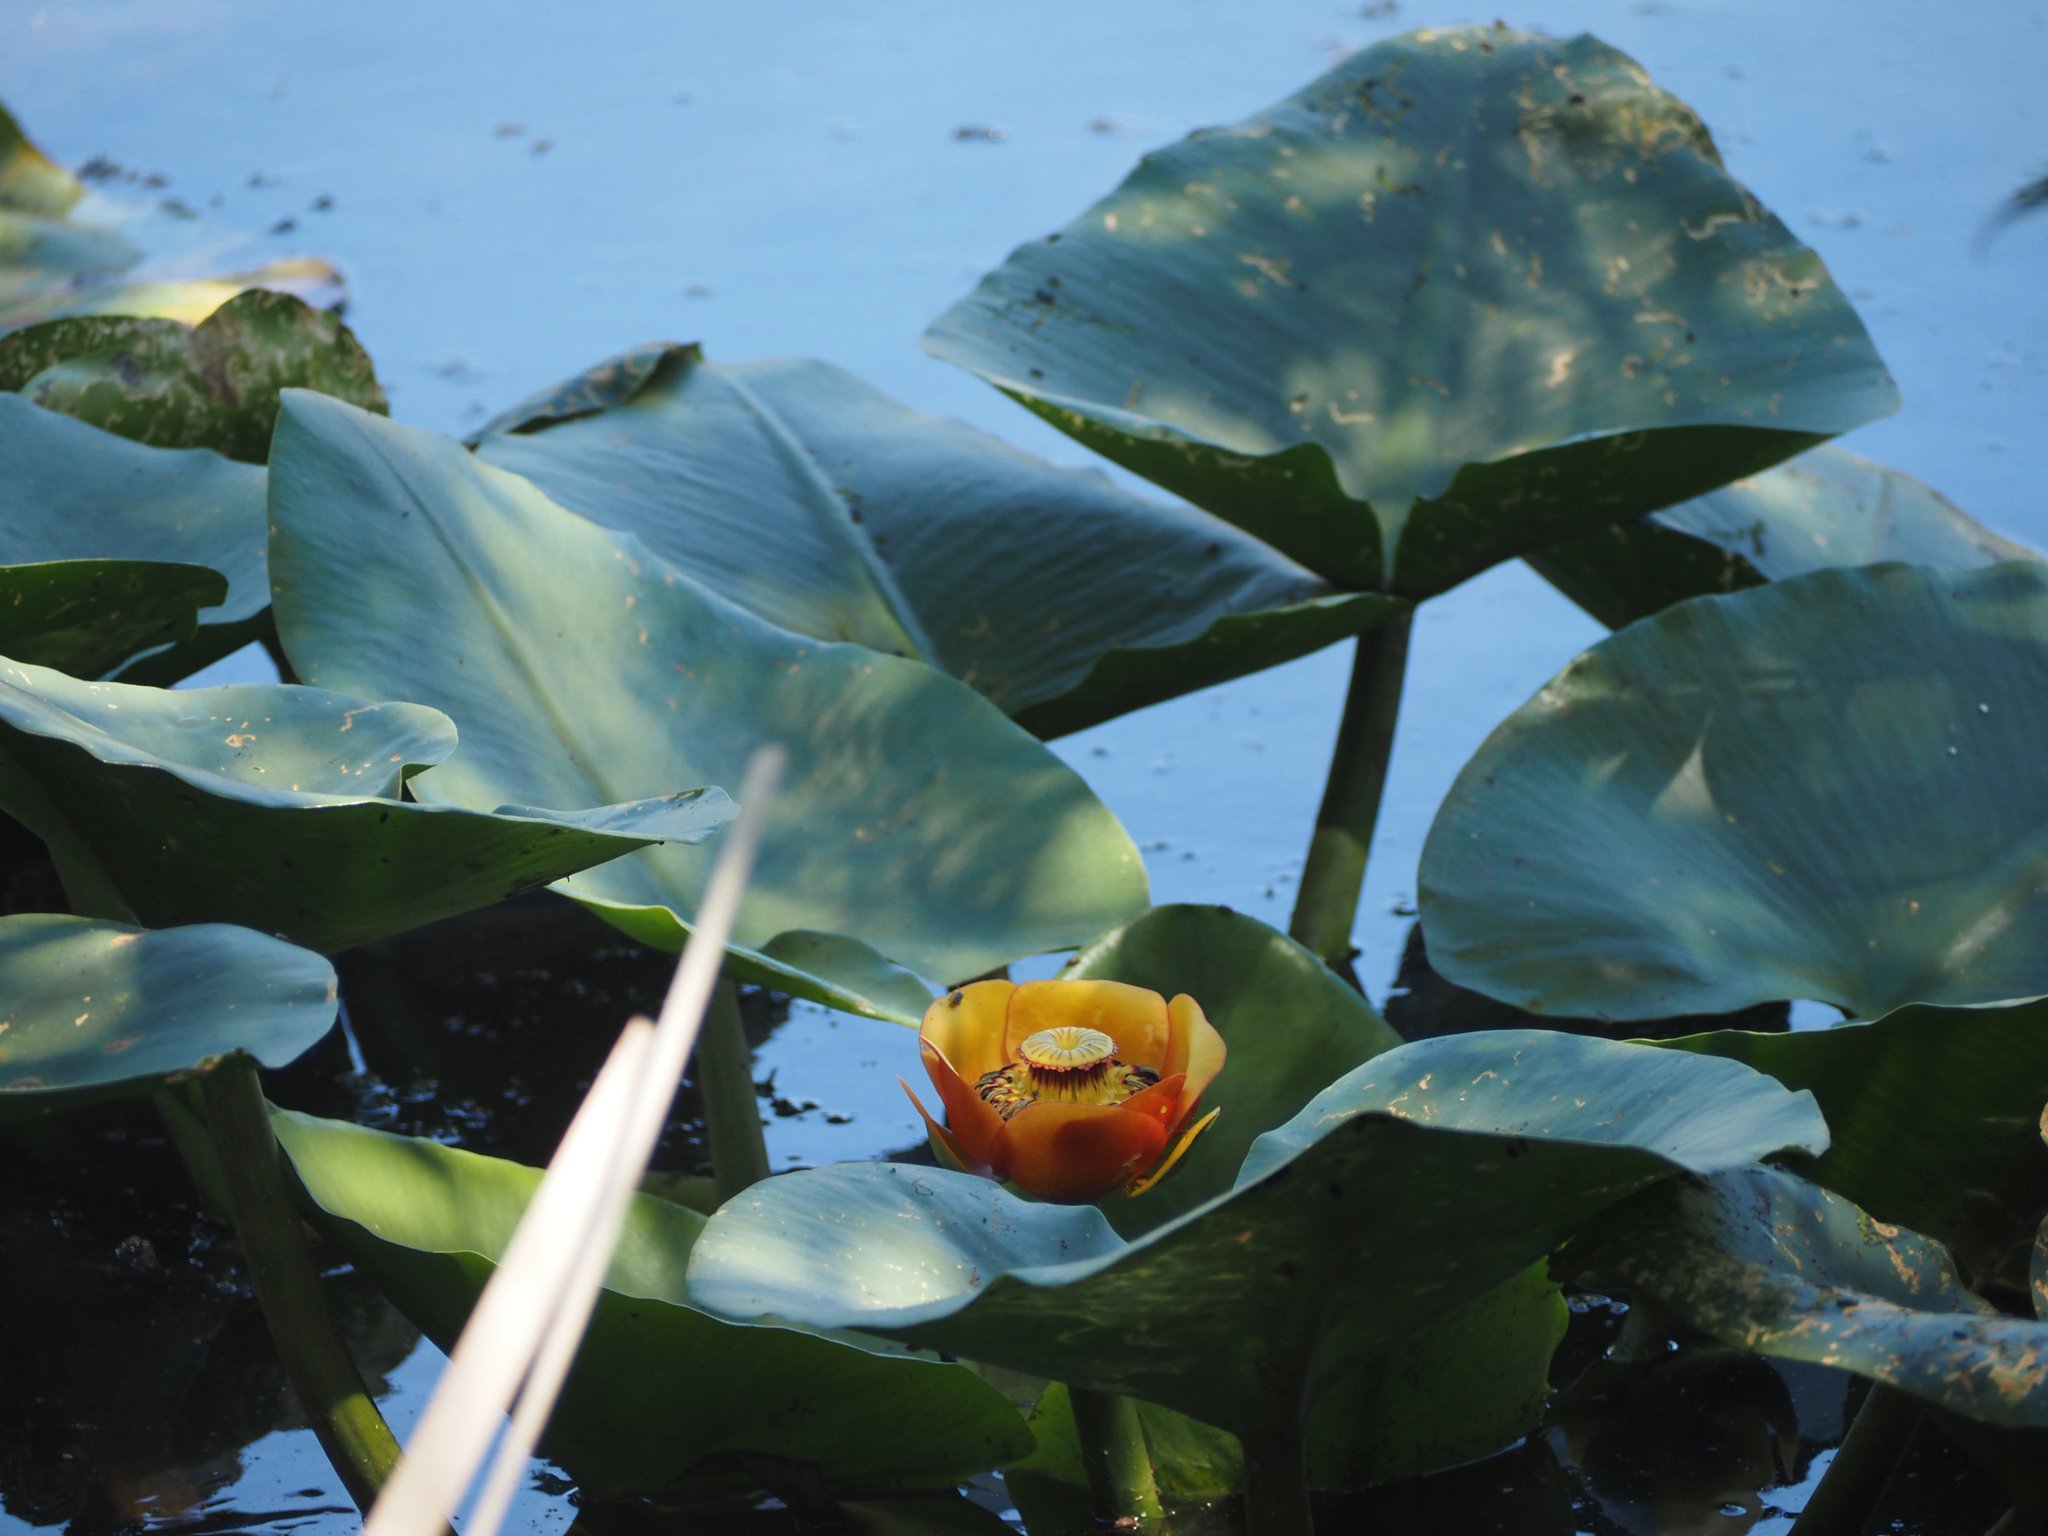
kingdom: Plantae
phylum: Tracheophyta
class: Magnoliopsida
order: Nymphaeales
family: Nymphaeaceae
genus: Nuphar
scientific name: Nuphar polysepala
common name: Rocky mountain cow-lily
